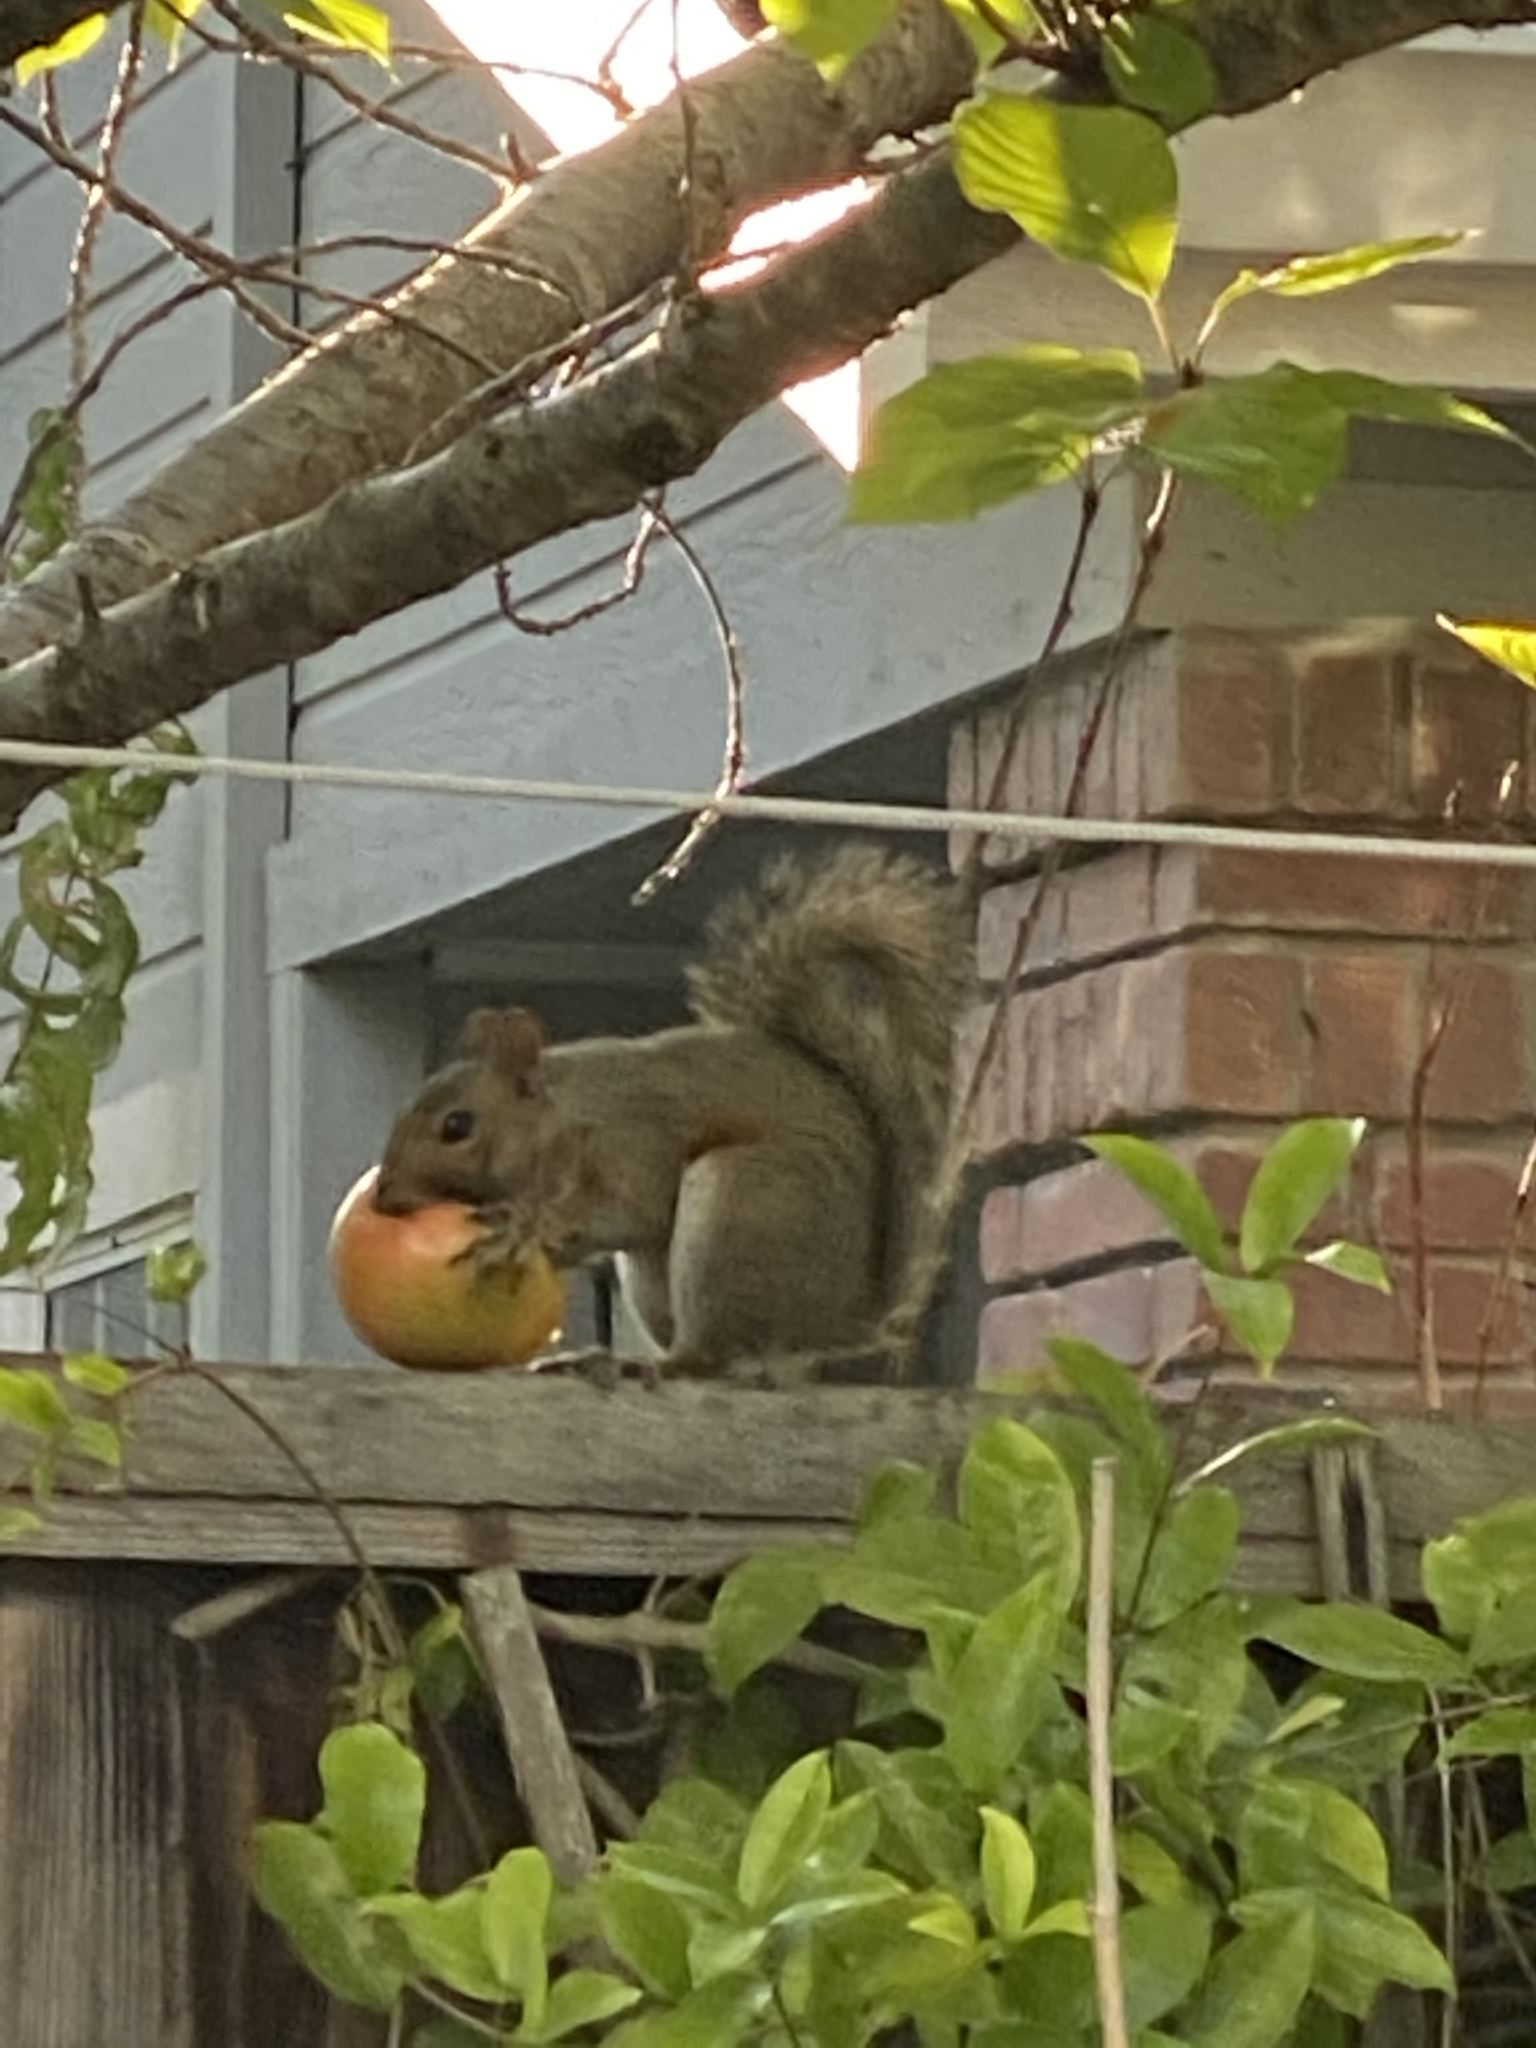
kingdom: Animalia
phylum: Chordata
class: Mammalia
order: Rodentia
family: Sciuridae
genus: Sciurus
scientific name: Sciurus carolinensis
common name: Eastern gray squirrel
